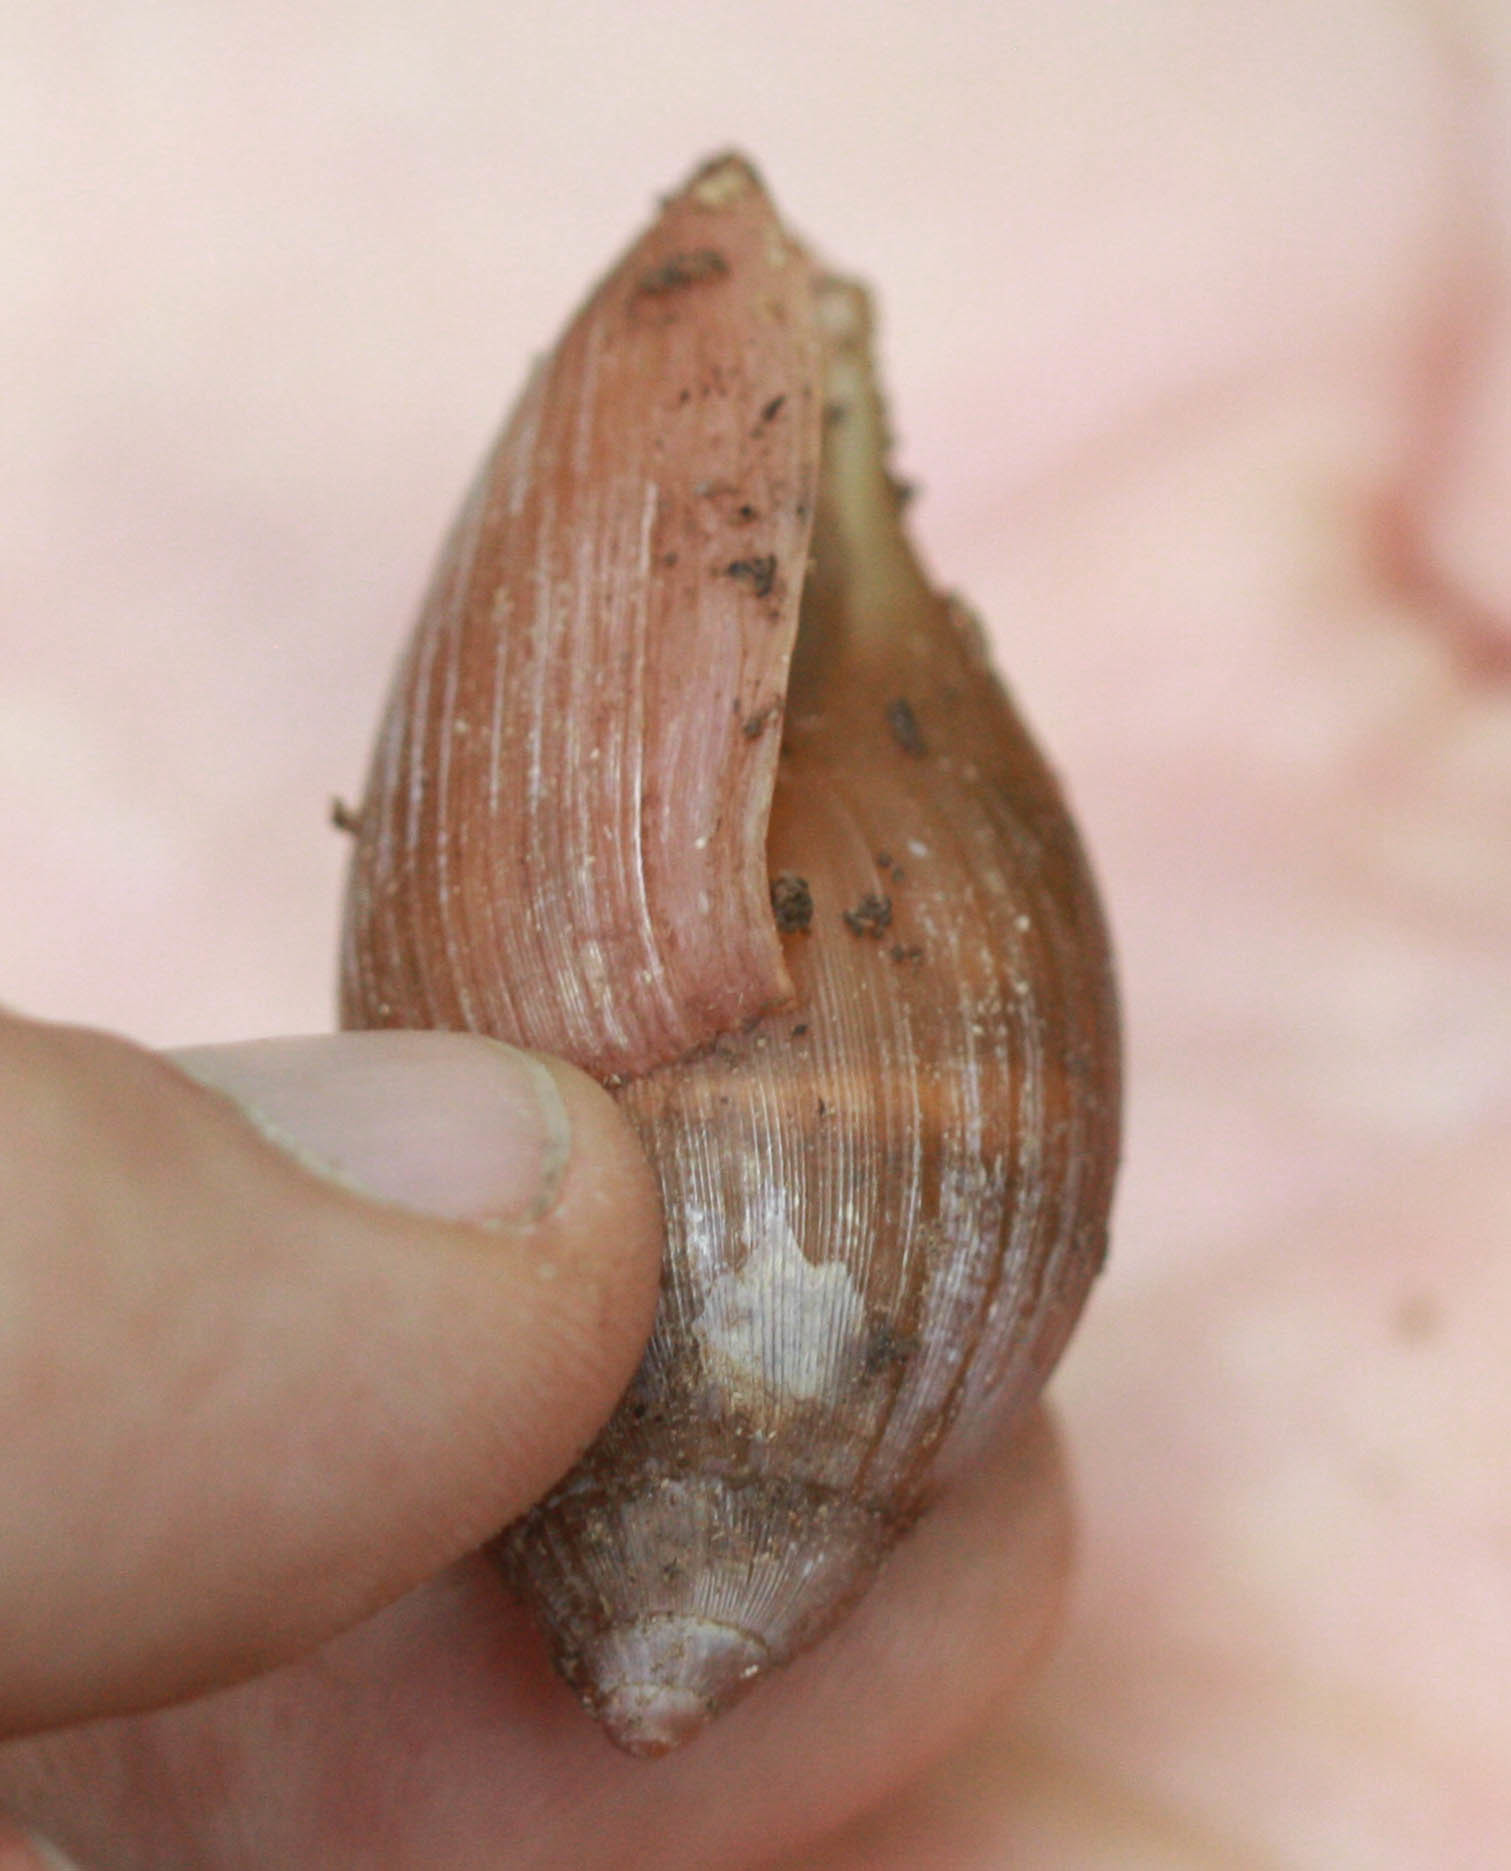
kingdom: Animalia
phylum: Mollusca
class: Gastropoda
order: Stylommatophora
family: Spiraxidae
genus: Euglandina
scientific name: Euglandina rosea
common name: Rosy wolfsnail
